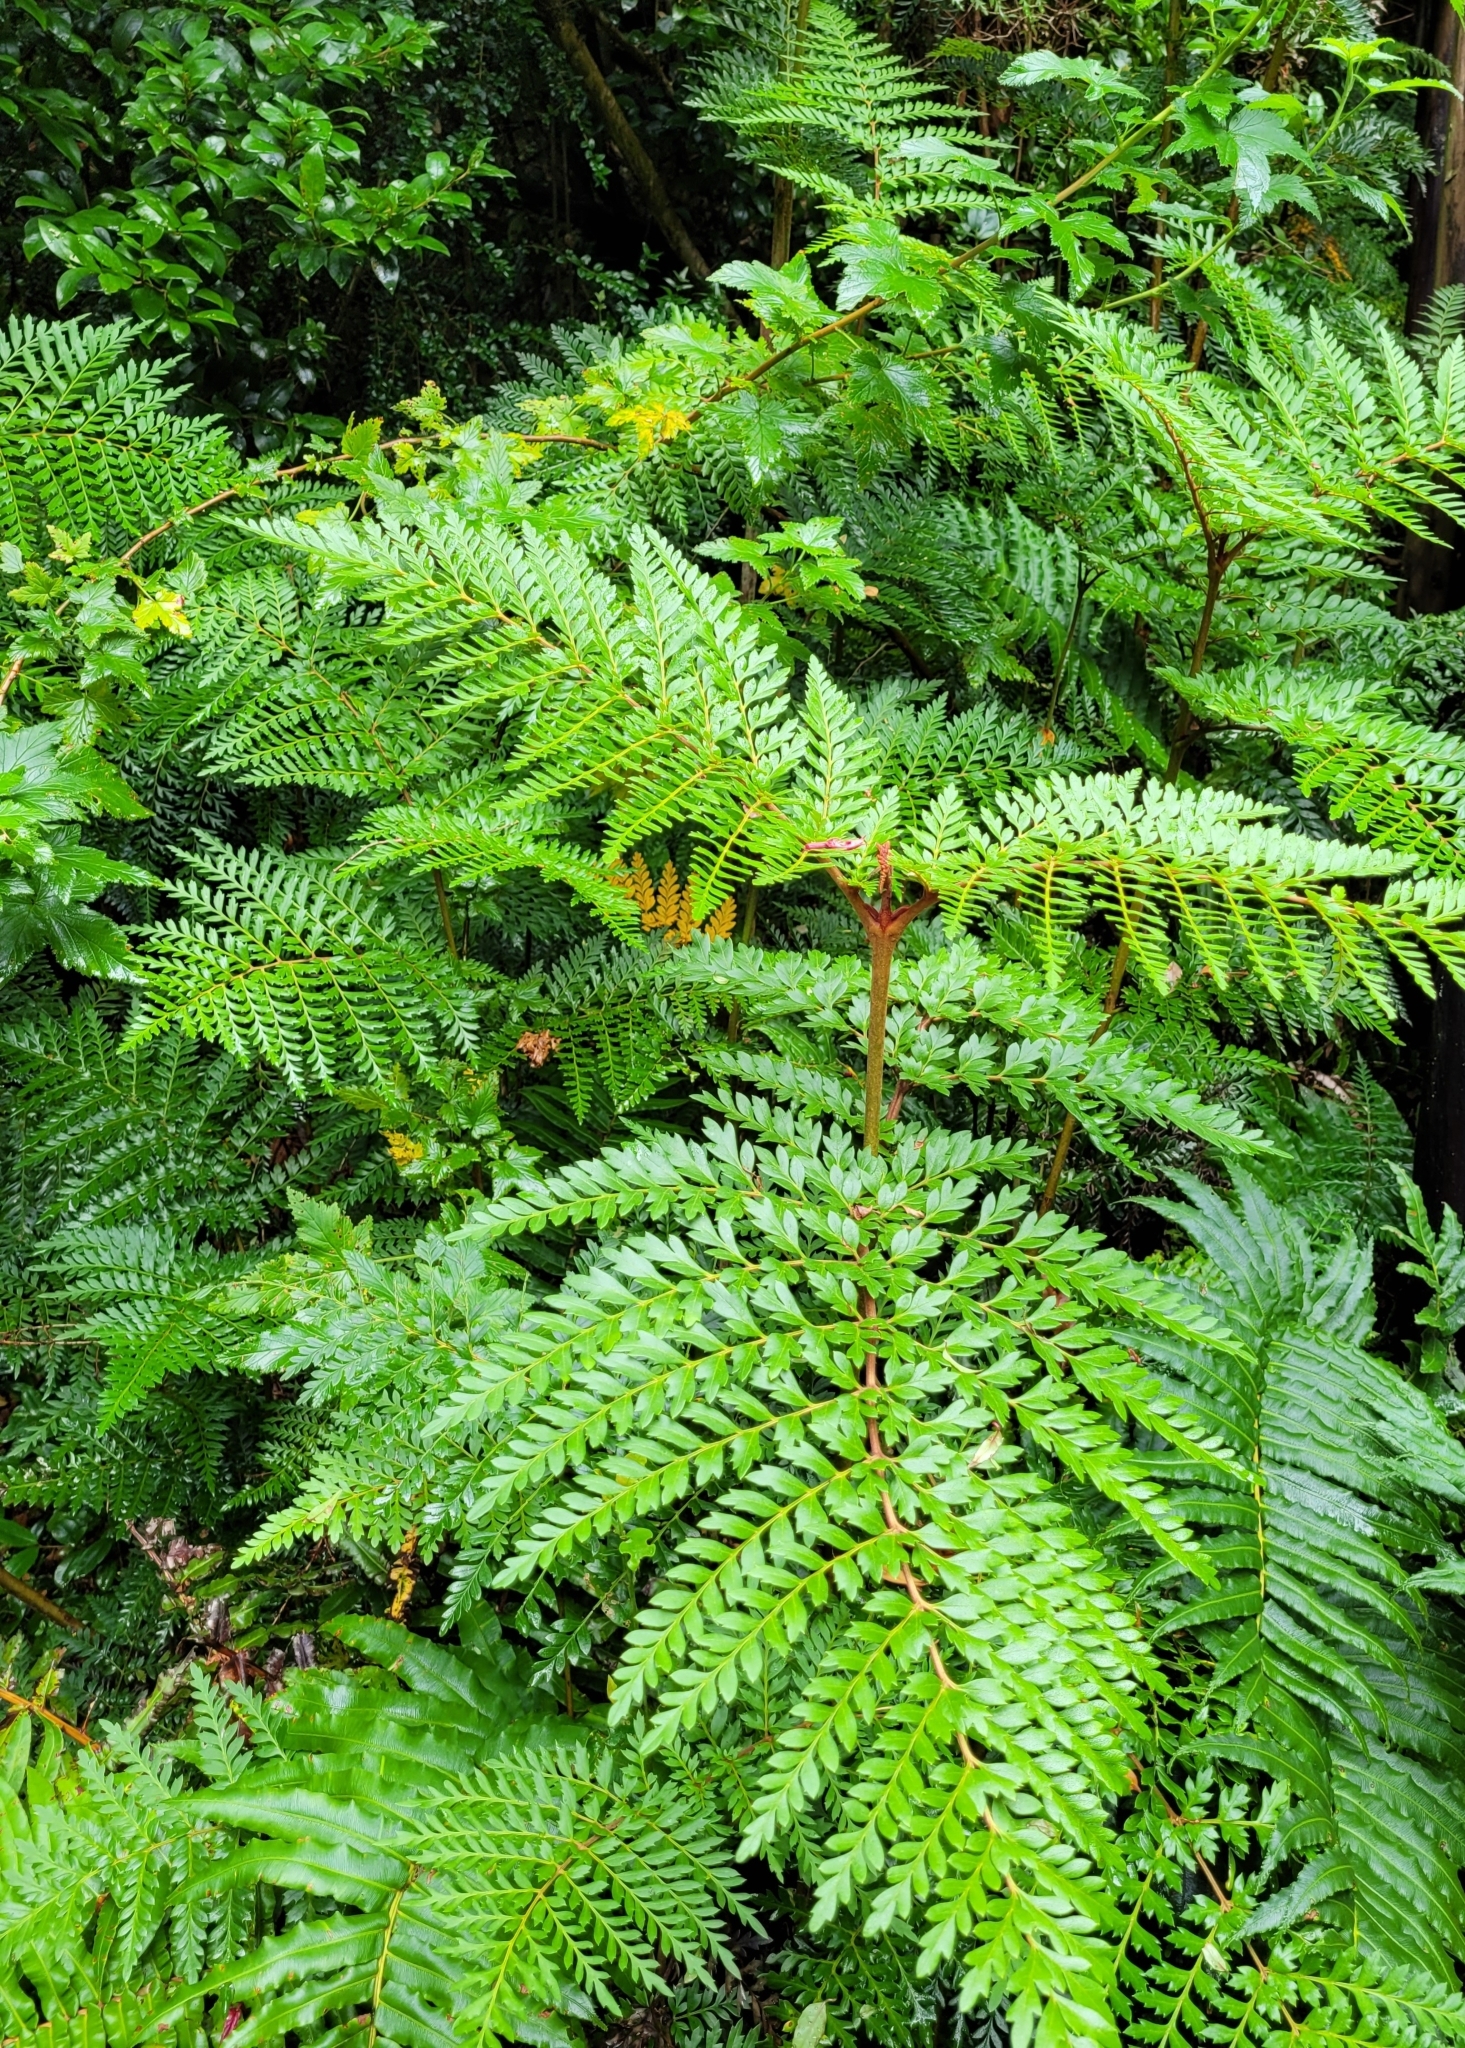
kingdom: Plantae
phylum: Tracheophyta
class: Magnoliopsida
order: Proteales
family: Proteaceae
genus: Lomatia
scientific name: Lomatia ferruginea
